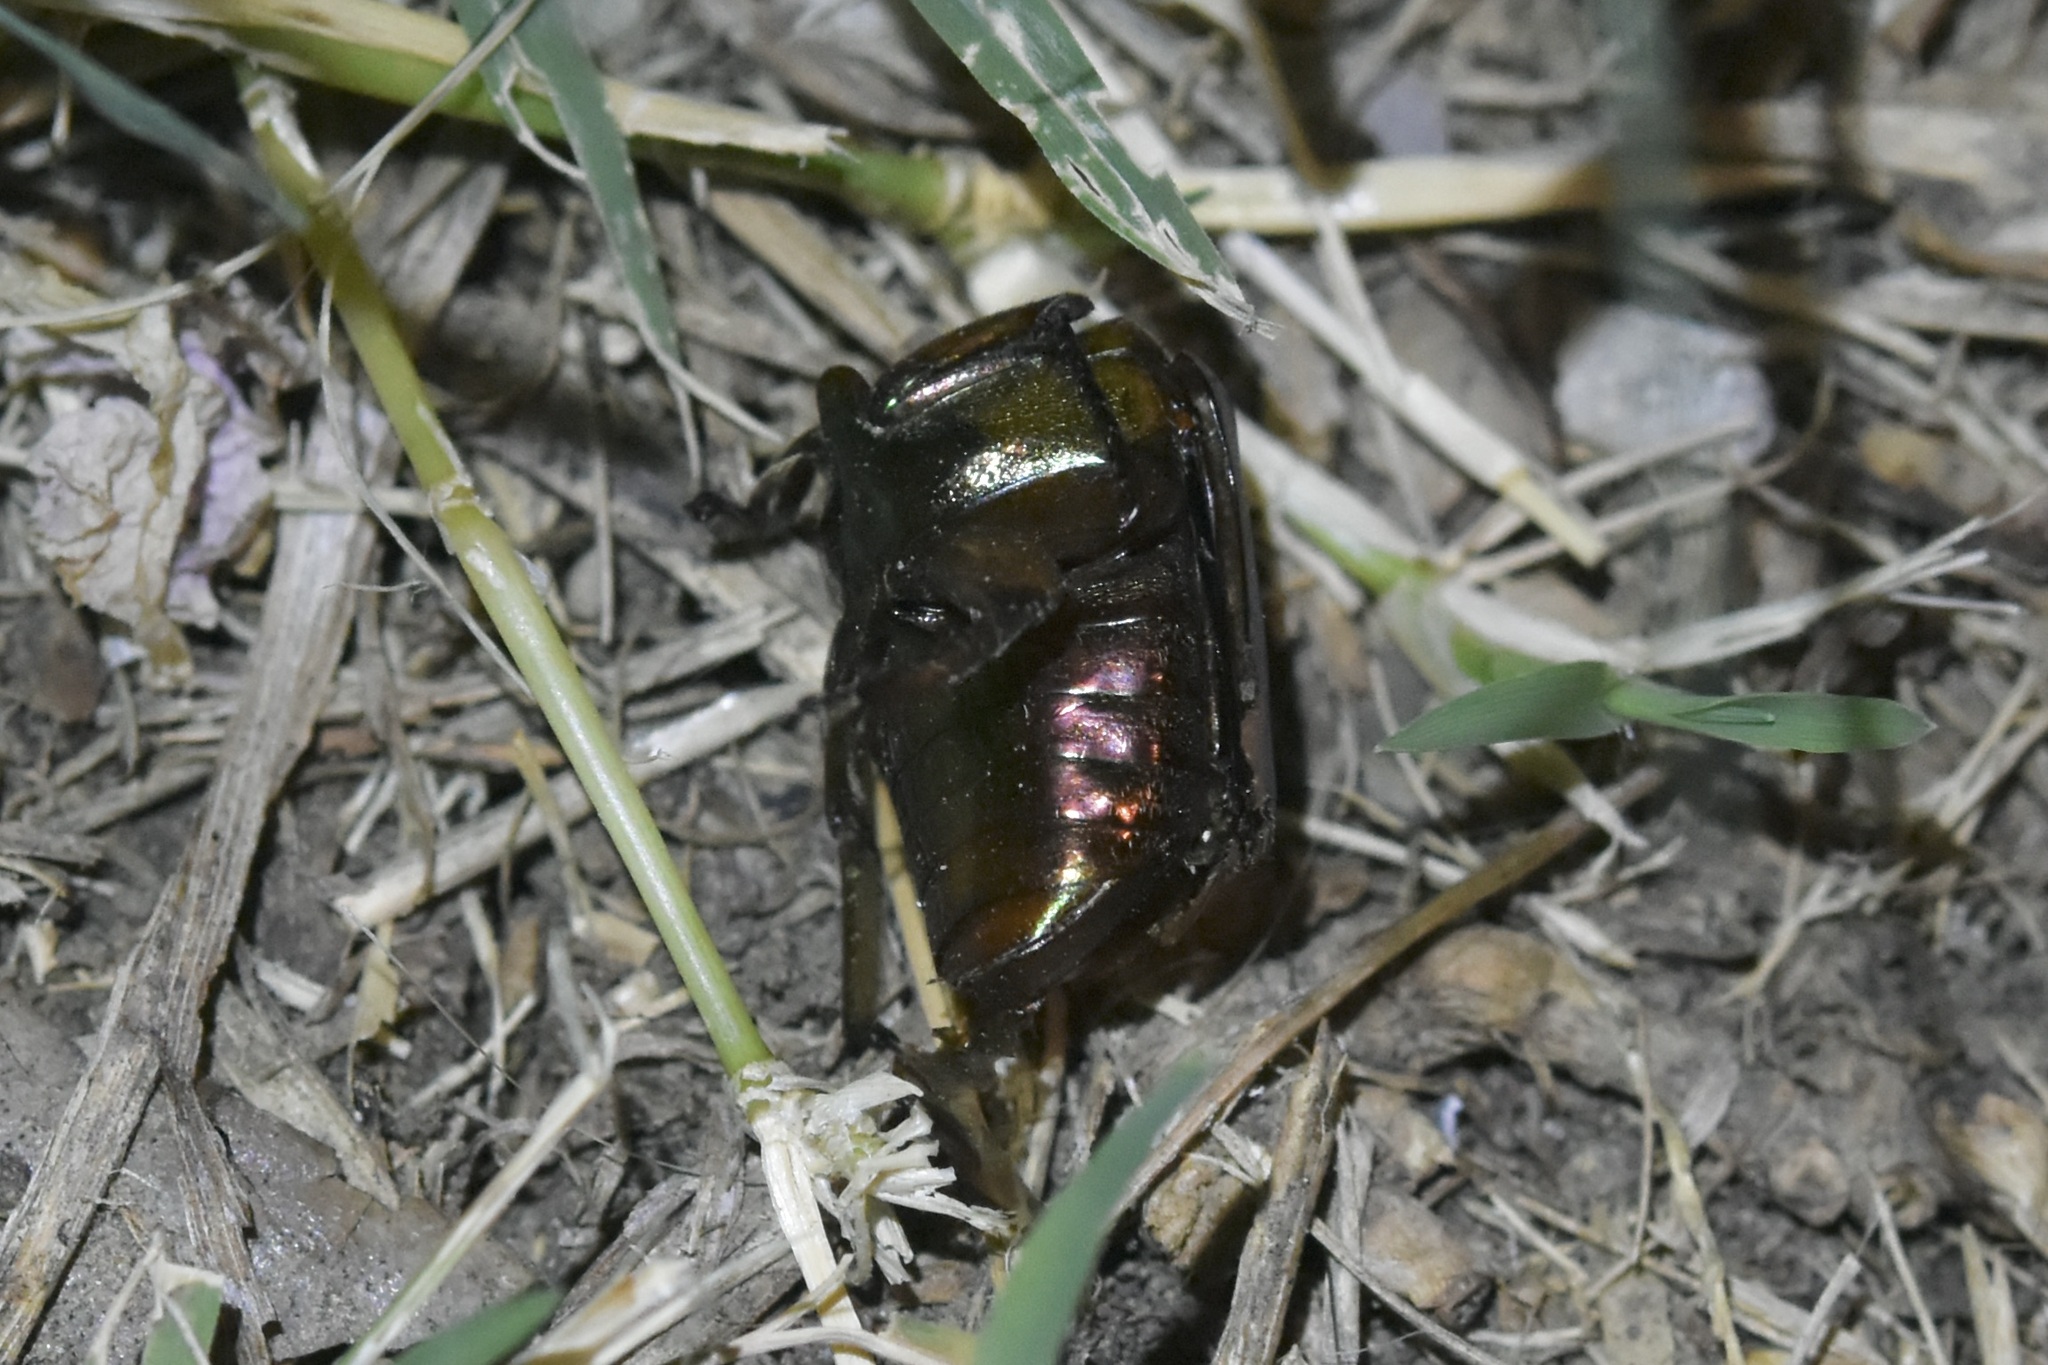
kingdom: Animalia
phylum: Arthropoda
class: Insecta
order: Coleoptera
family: Scarabaeidae
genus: Cotinis
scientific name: Cotinis nitida
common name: Common green june beetle
